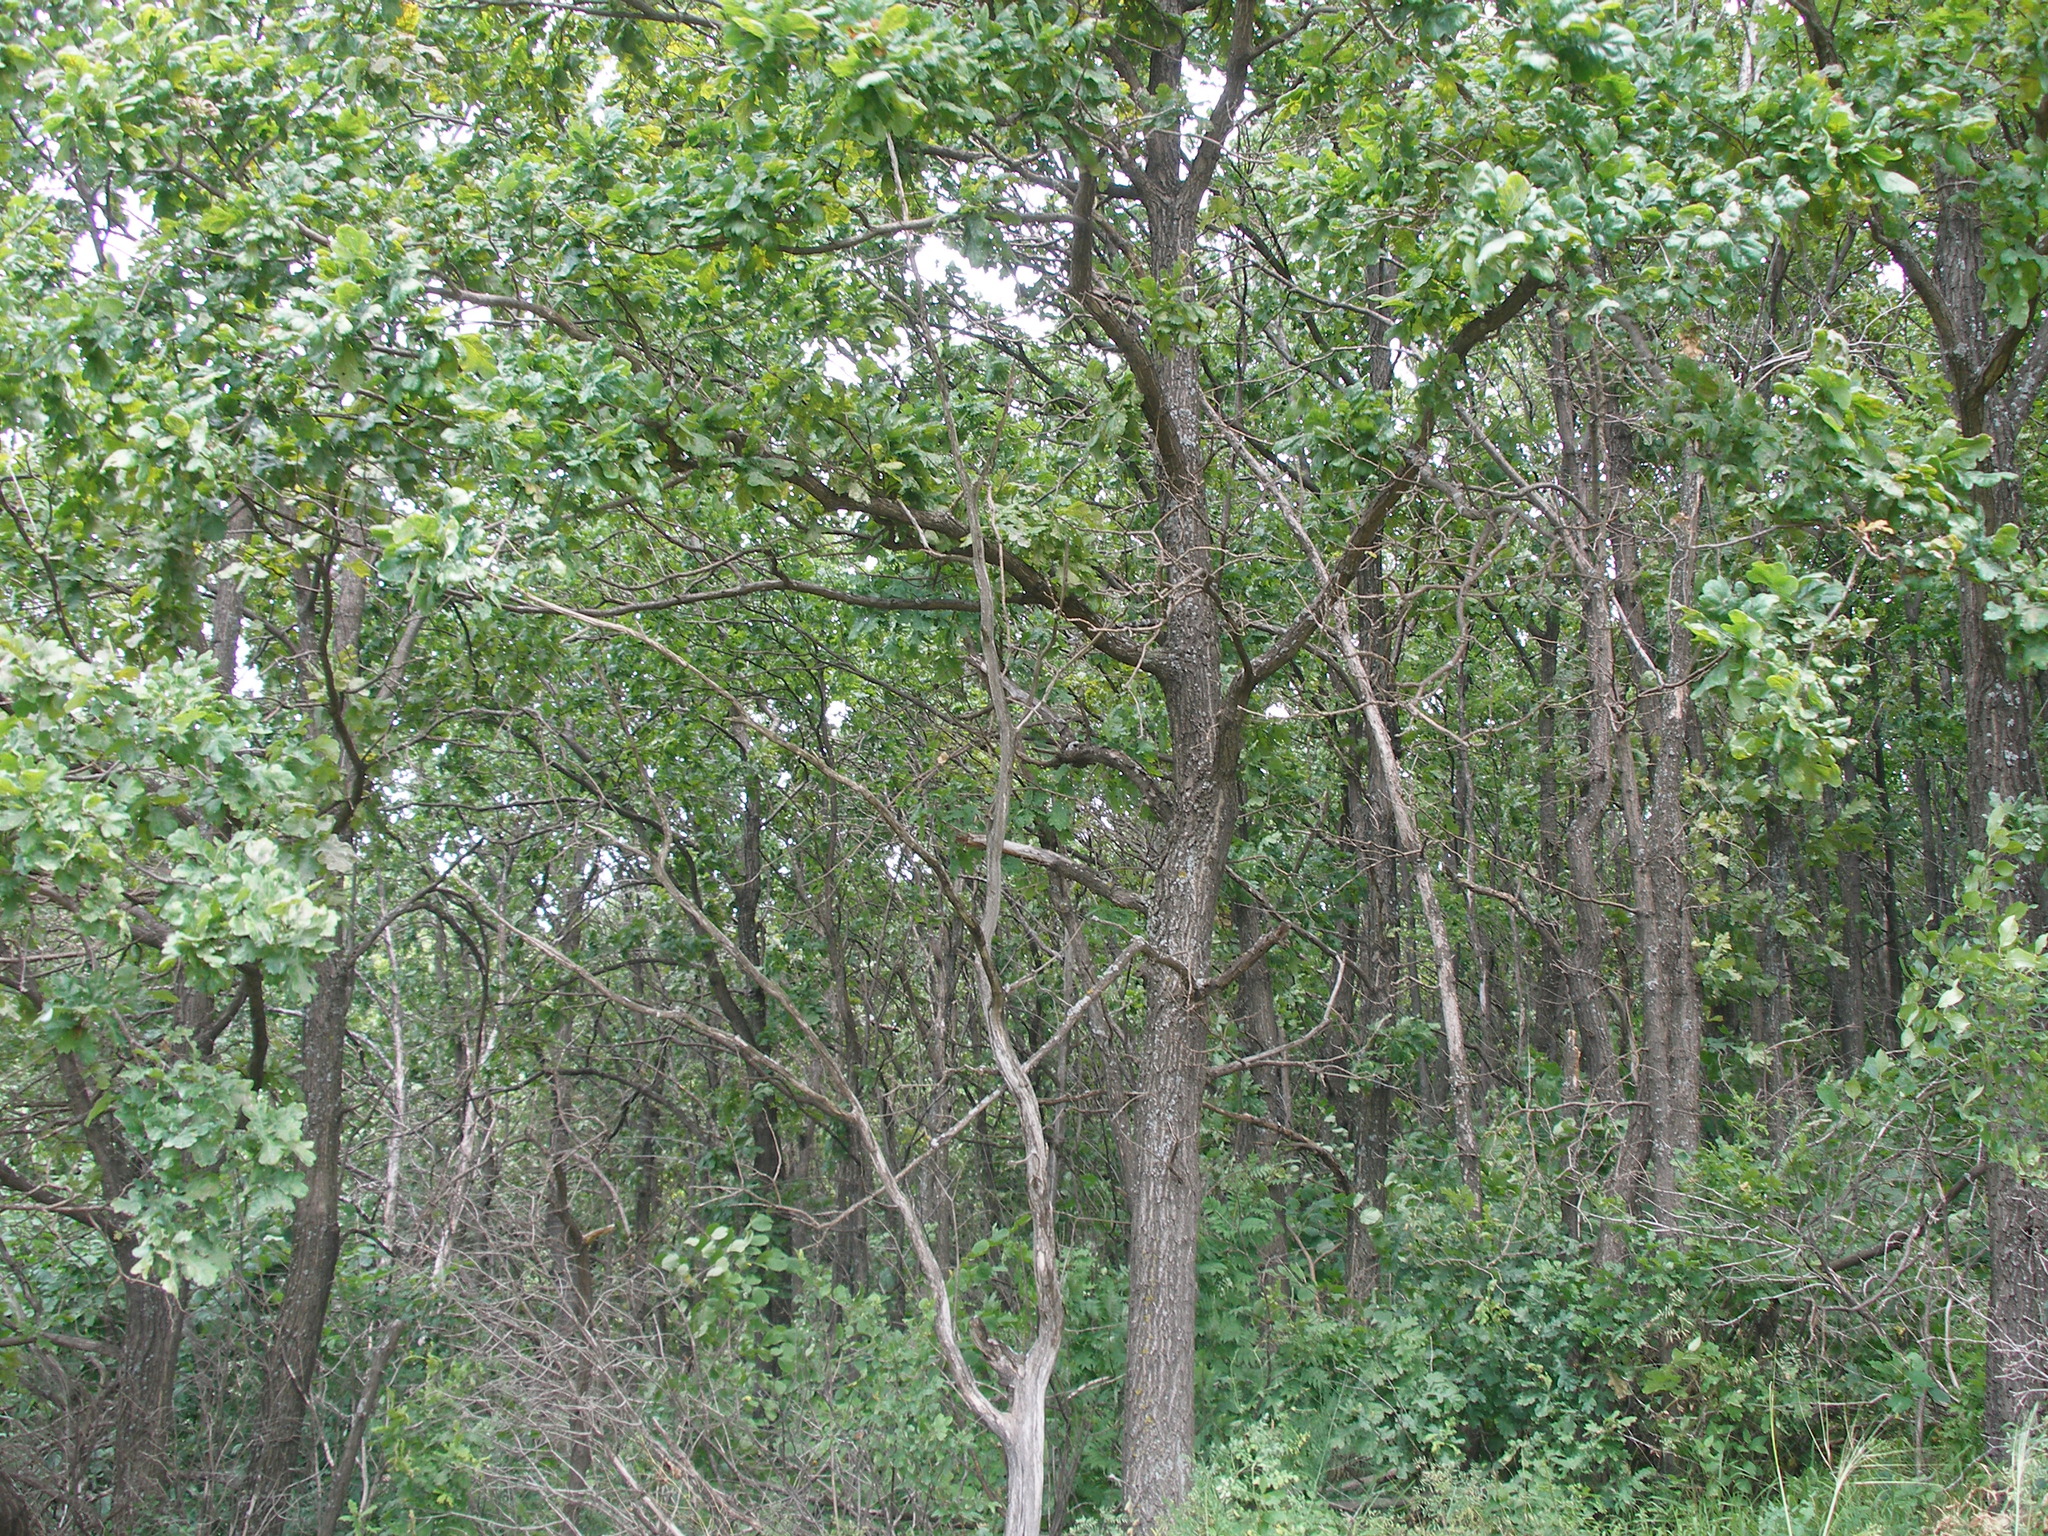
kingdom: Plantae
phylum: Tracheophyta
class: Magnoliopsida
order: Fagales
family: Fagaceae
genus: Quercus
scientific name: Quercus robur
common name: Pedunculate oak
